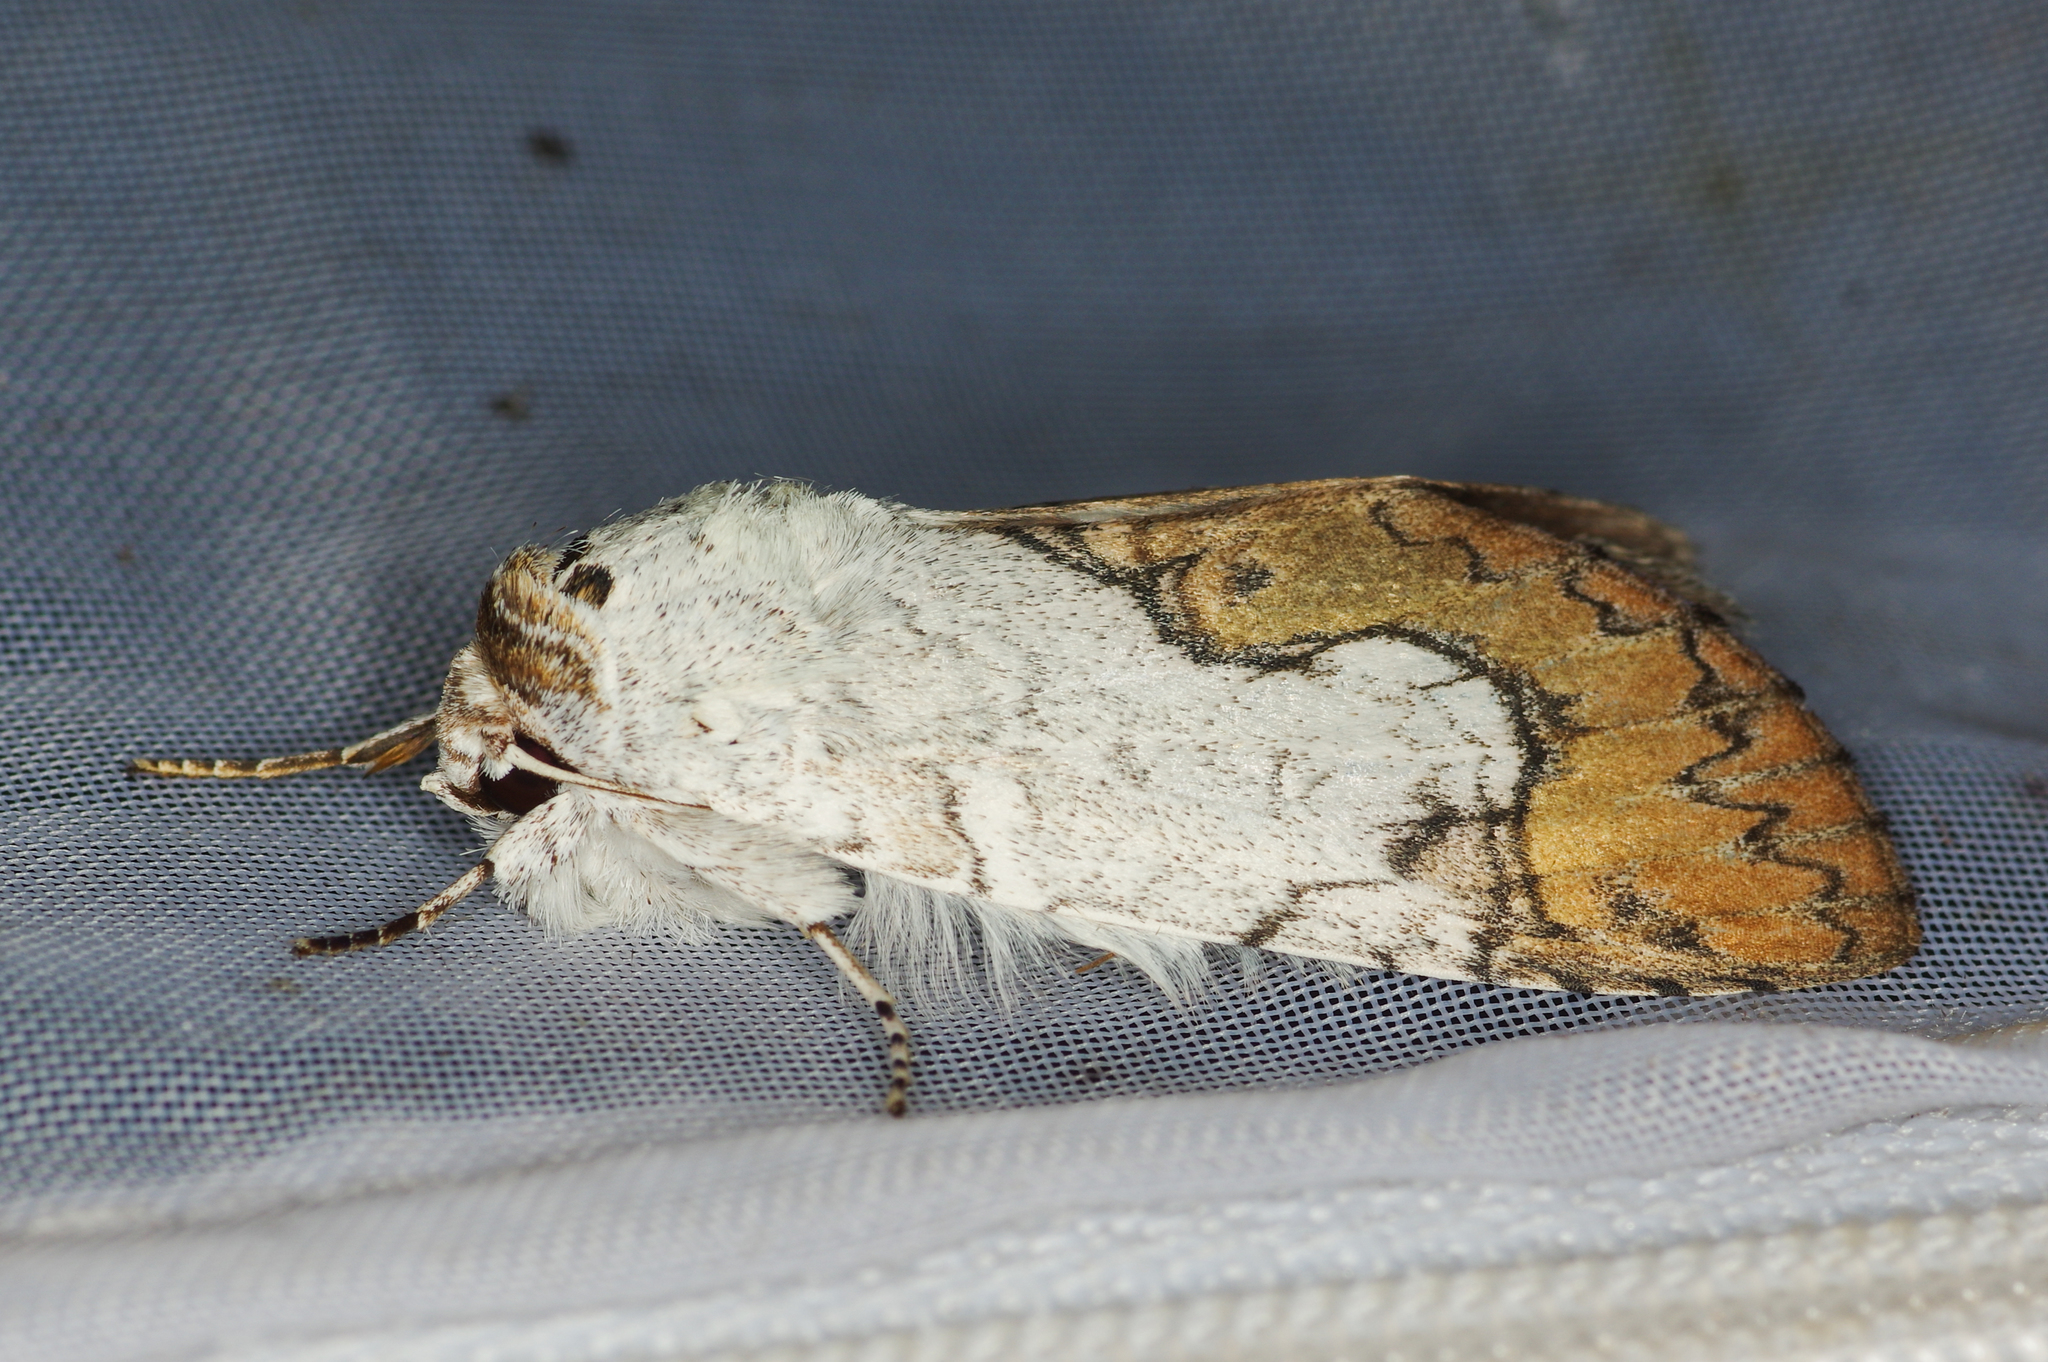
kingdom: Animalia
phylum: Arthropoda
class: Insecta
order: Lepidoptera
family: Notodontidae
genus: Ginaldia
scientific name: Ginaldia
